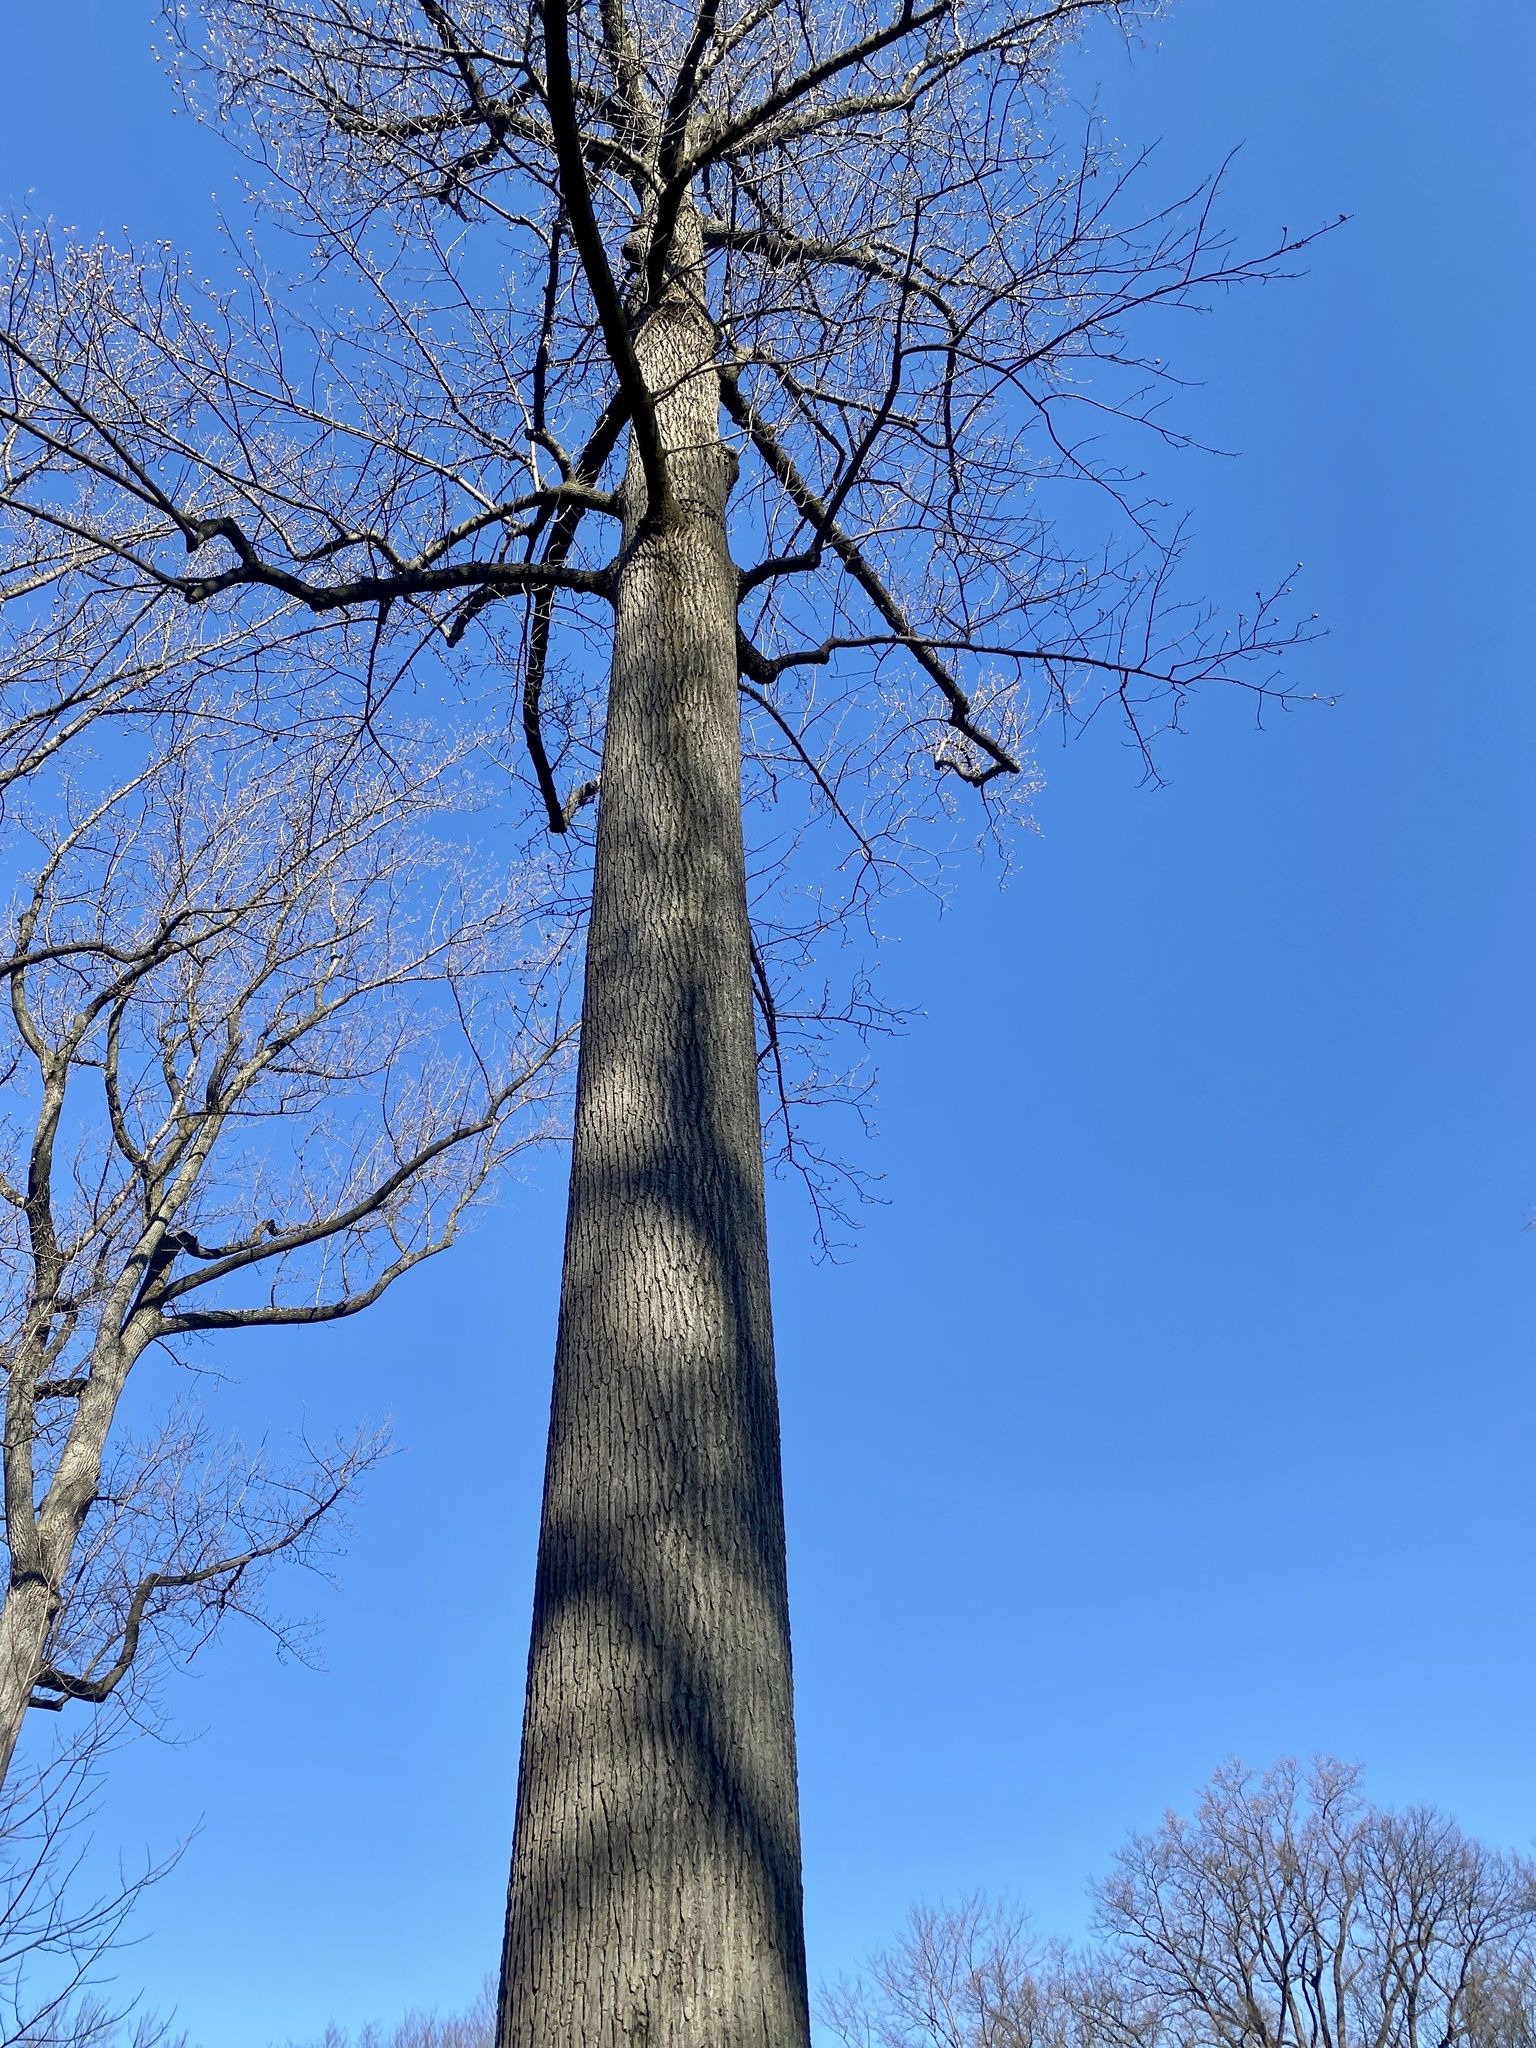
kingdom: Plantae
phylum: Tracheophyta
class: Magnoliopsida
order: Magnoliales
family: Magnoliaceae
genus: Liriodendron
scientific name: Liriodendron tulipifera
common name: Tulip tree
